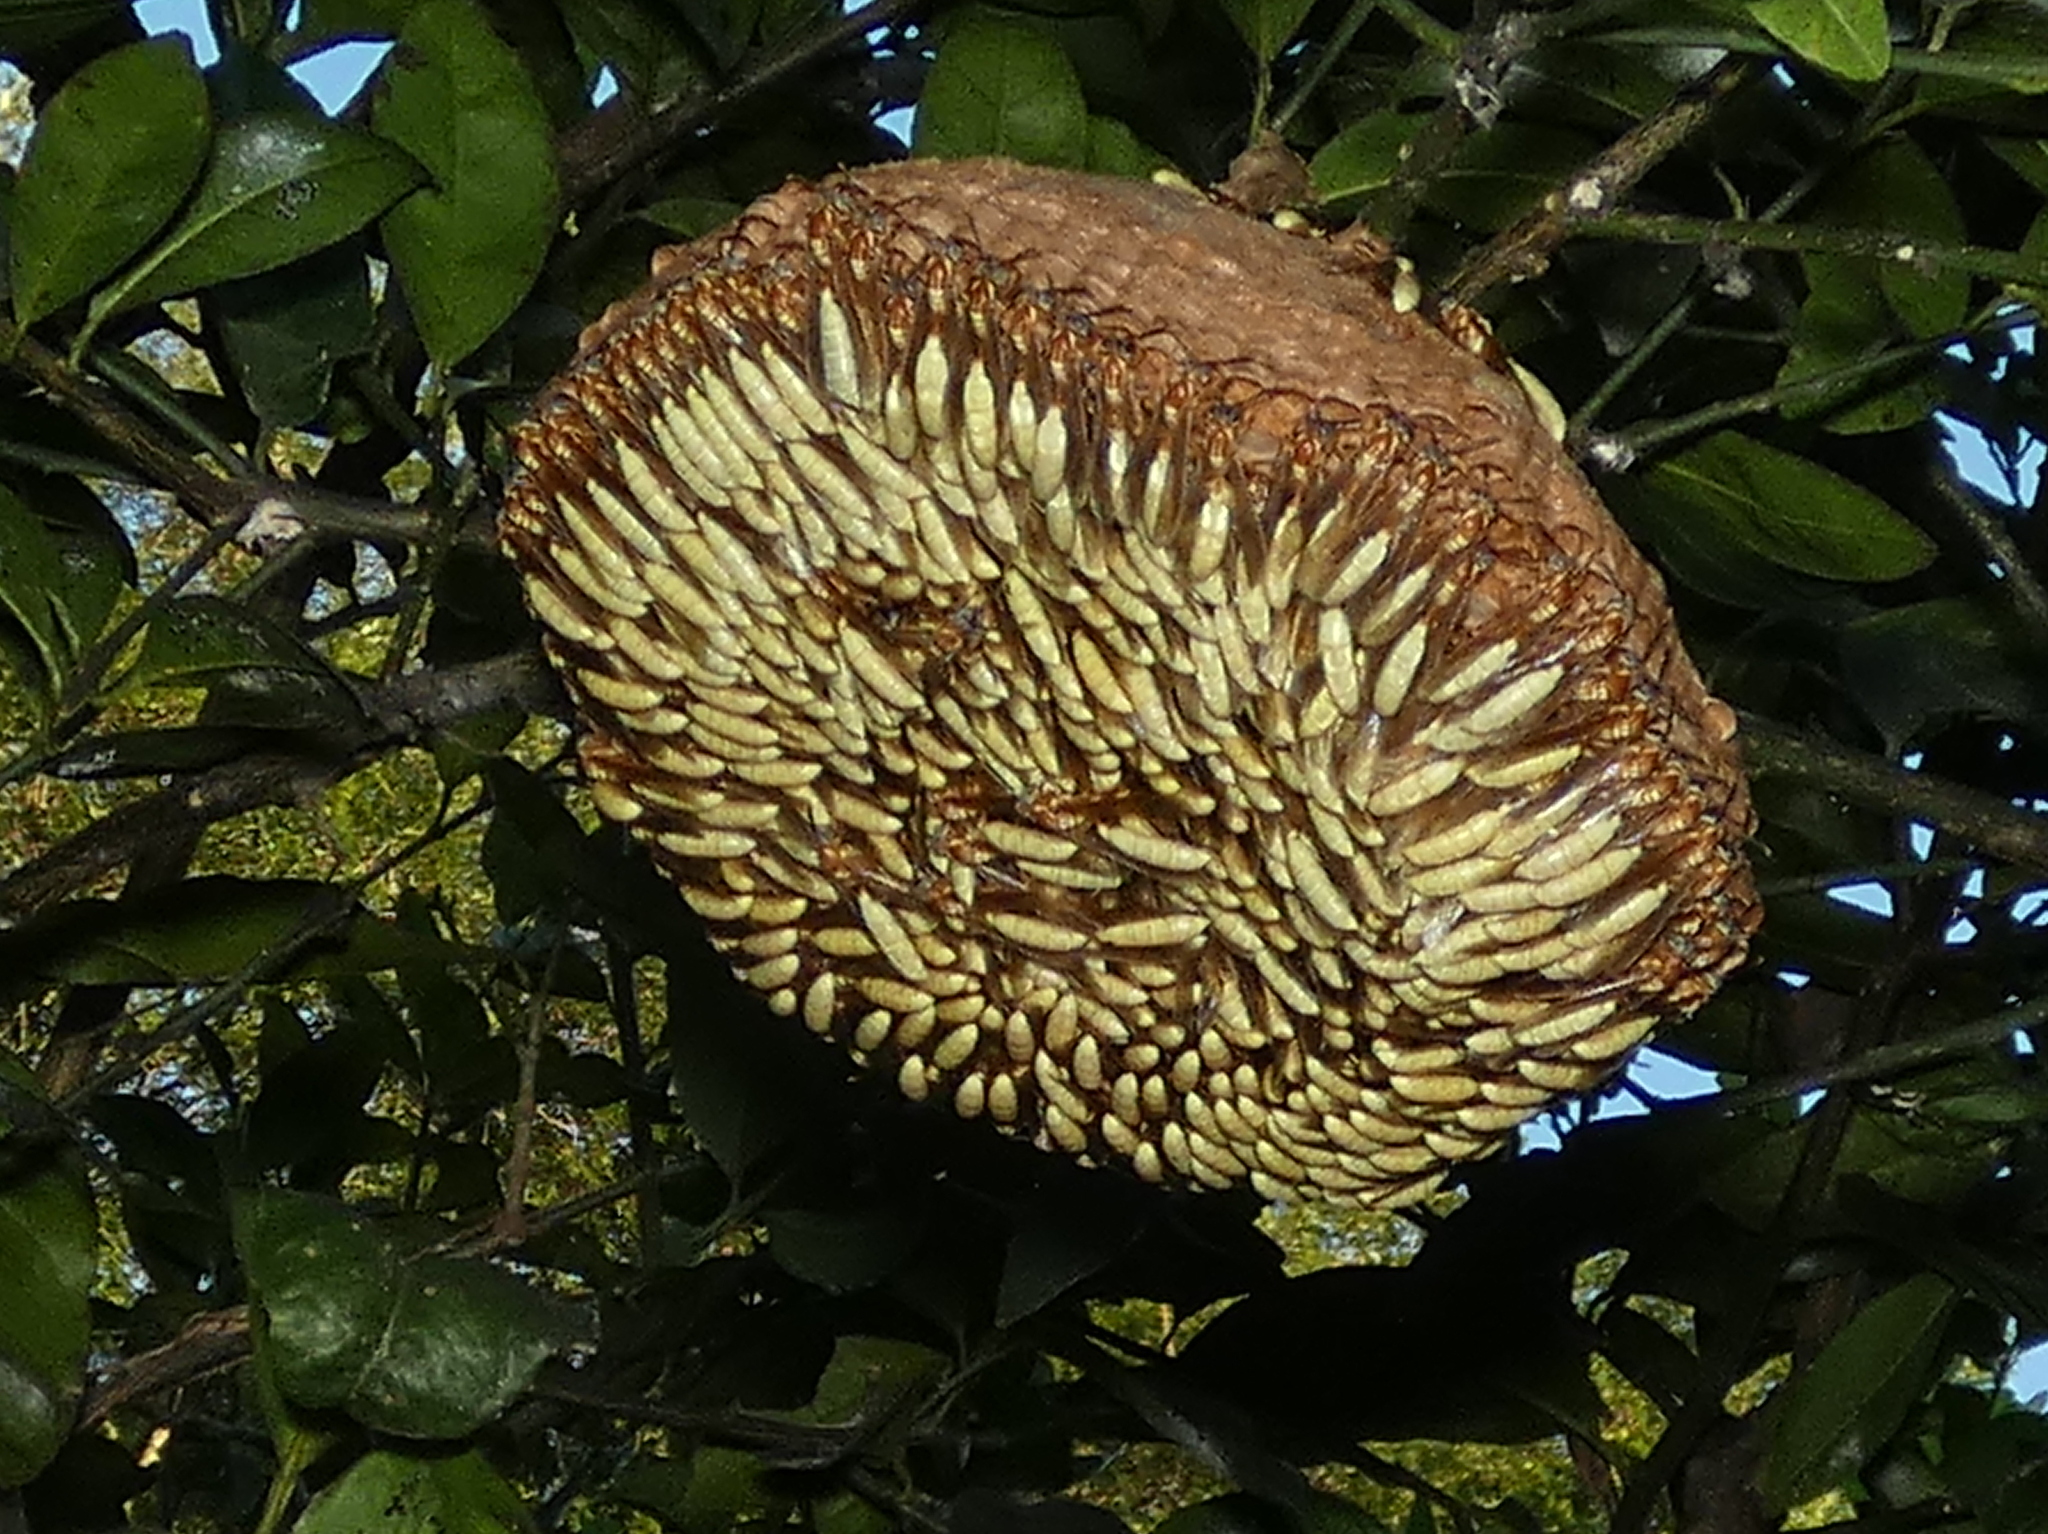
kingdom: Animalia
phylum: Arthropoda
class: Insecta
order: Hymenoptera
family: Vespidae
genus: Apoica
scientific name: Apoica flavissima
